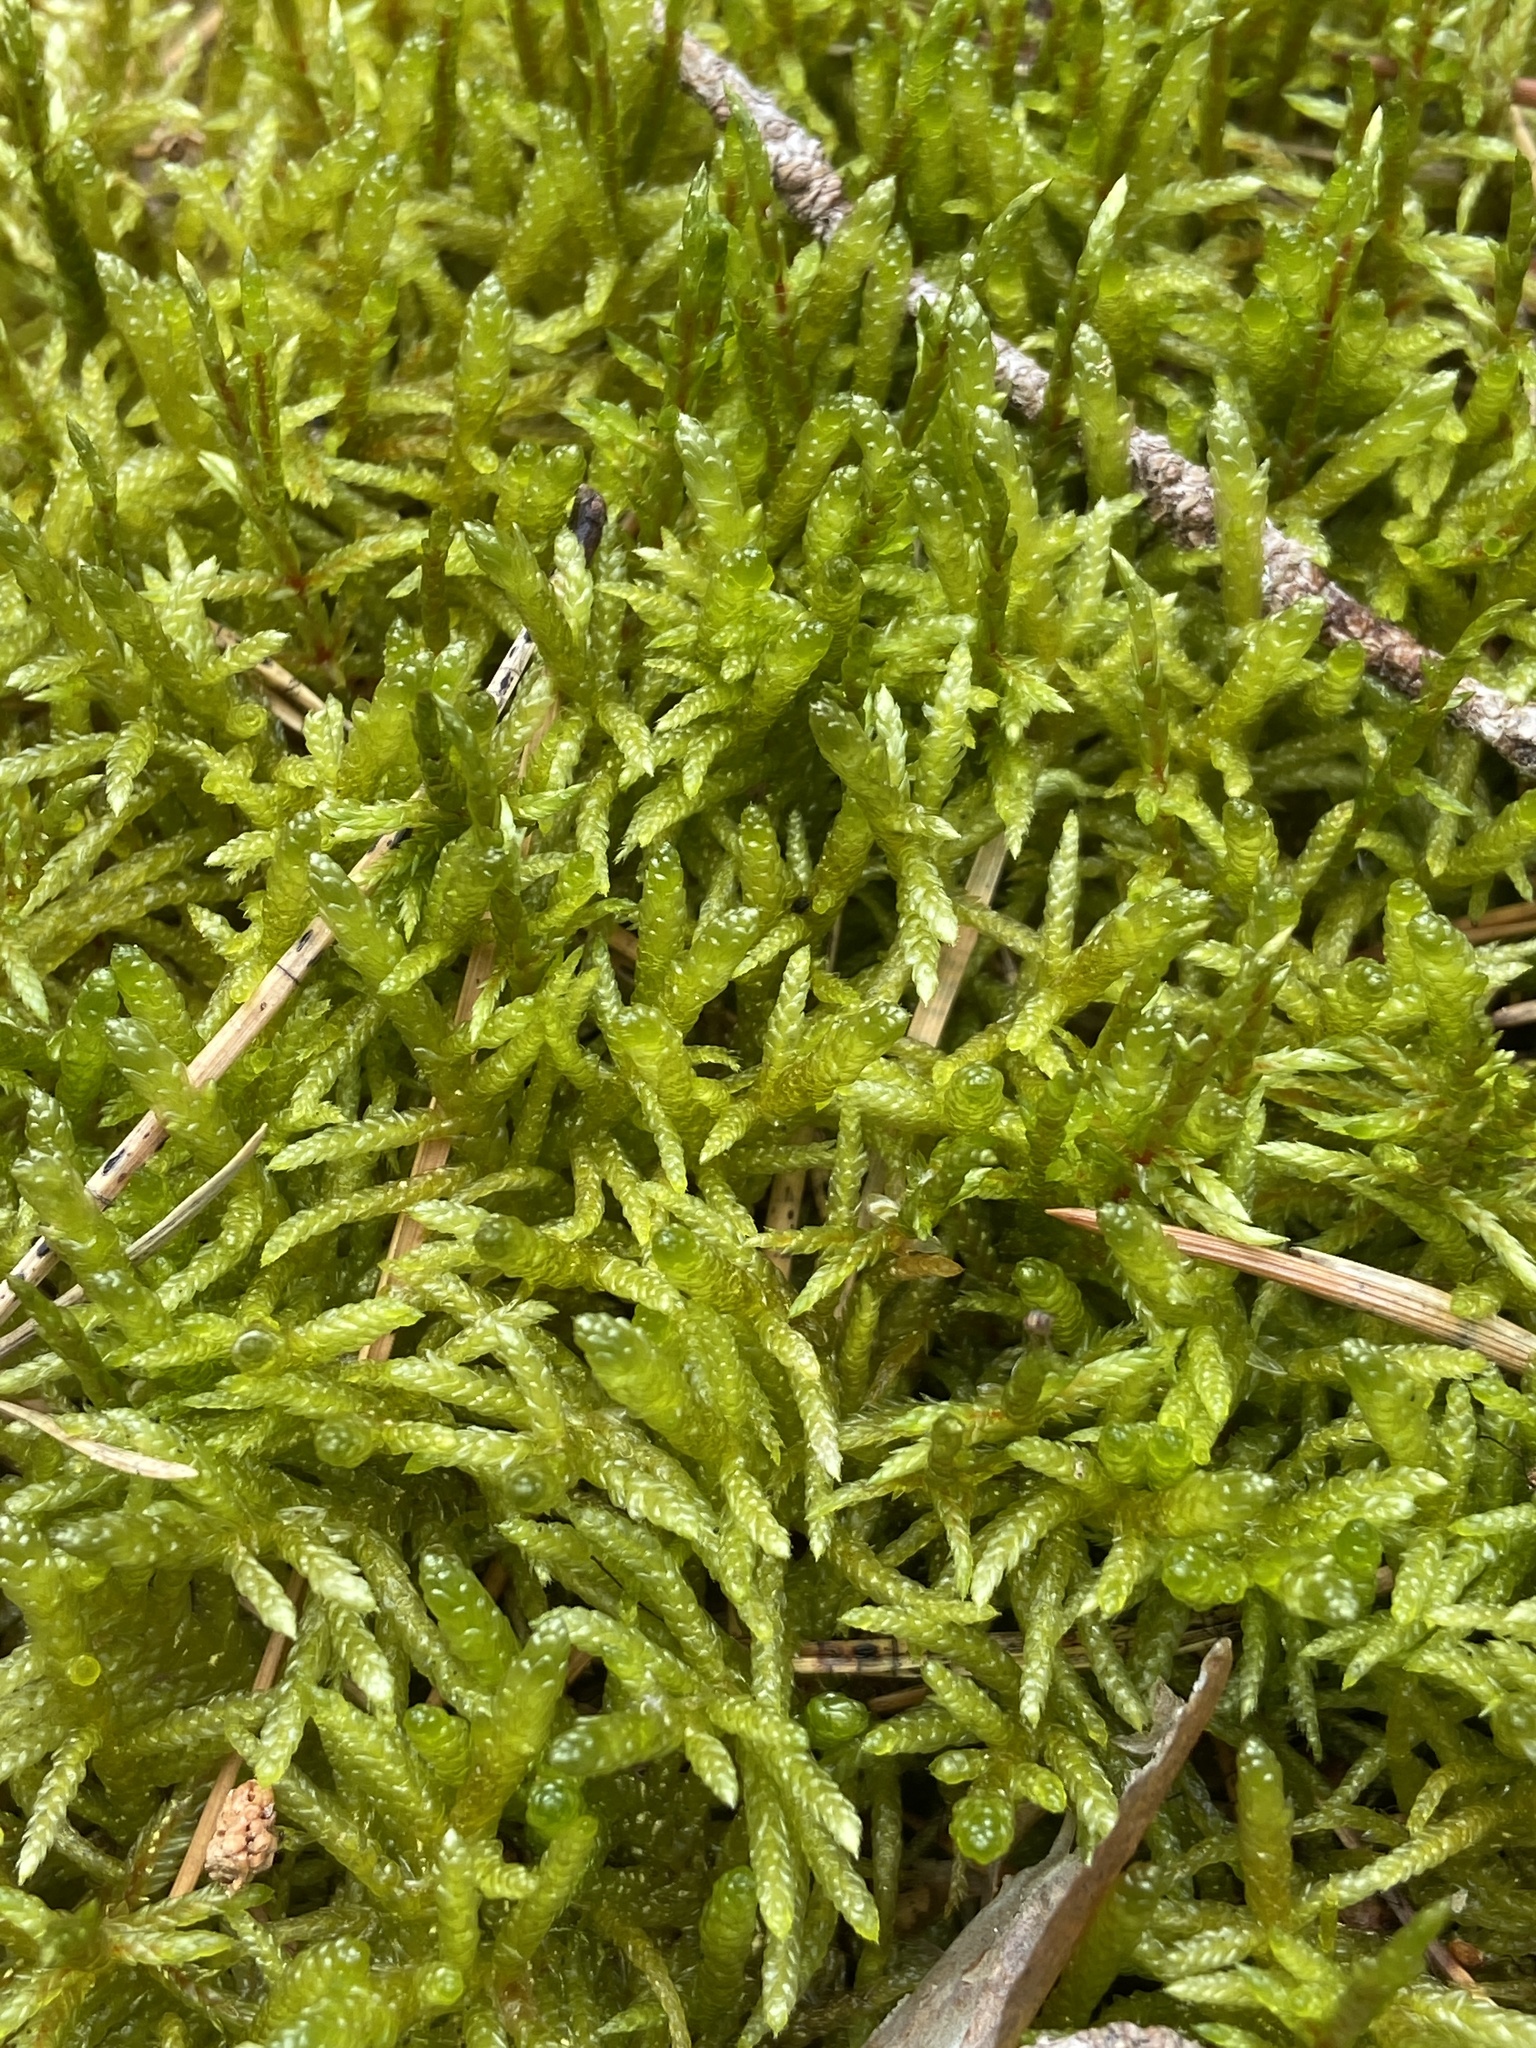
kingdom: Plantae
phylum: Bryophyta
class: Bryopsida
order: Hypnales
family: Brachytheciaceae
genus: Pseudoscleropodium
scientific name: Pseudoscleropodium purum
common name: Neat feather-moss
